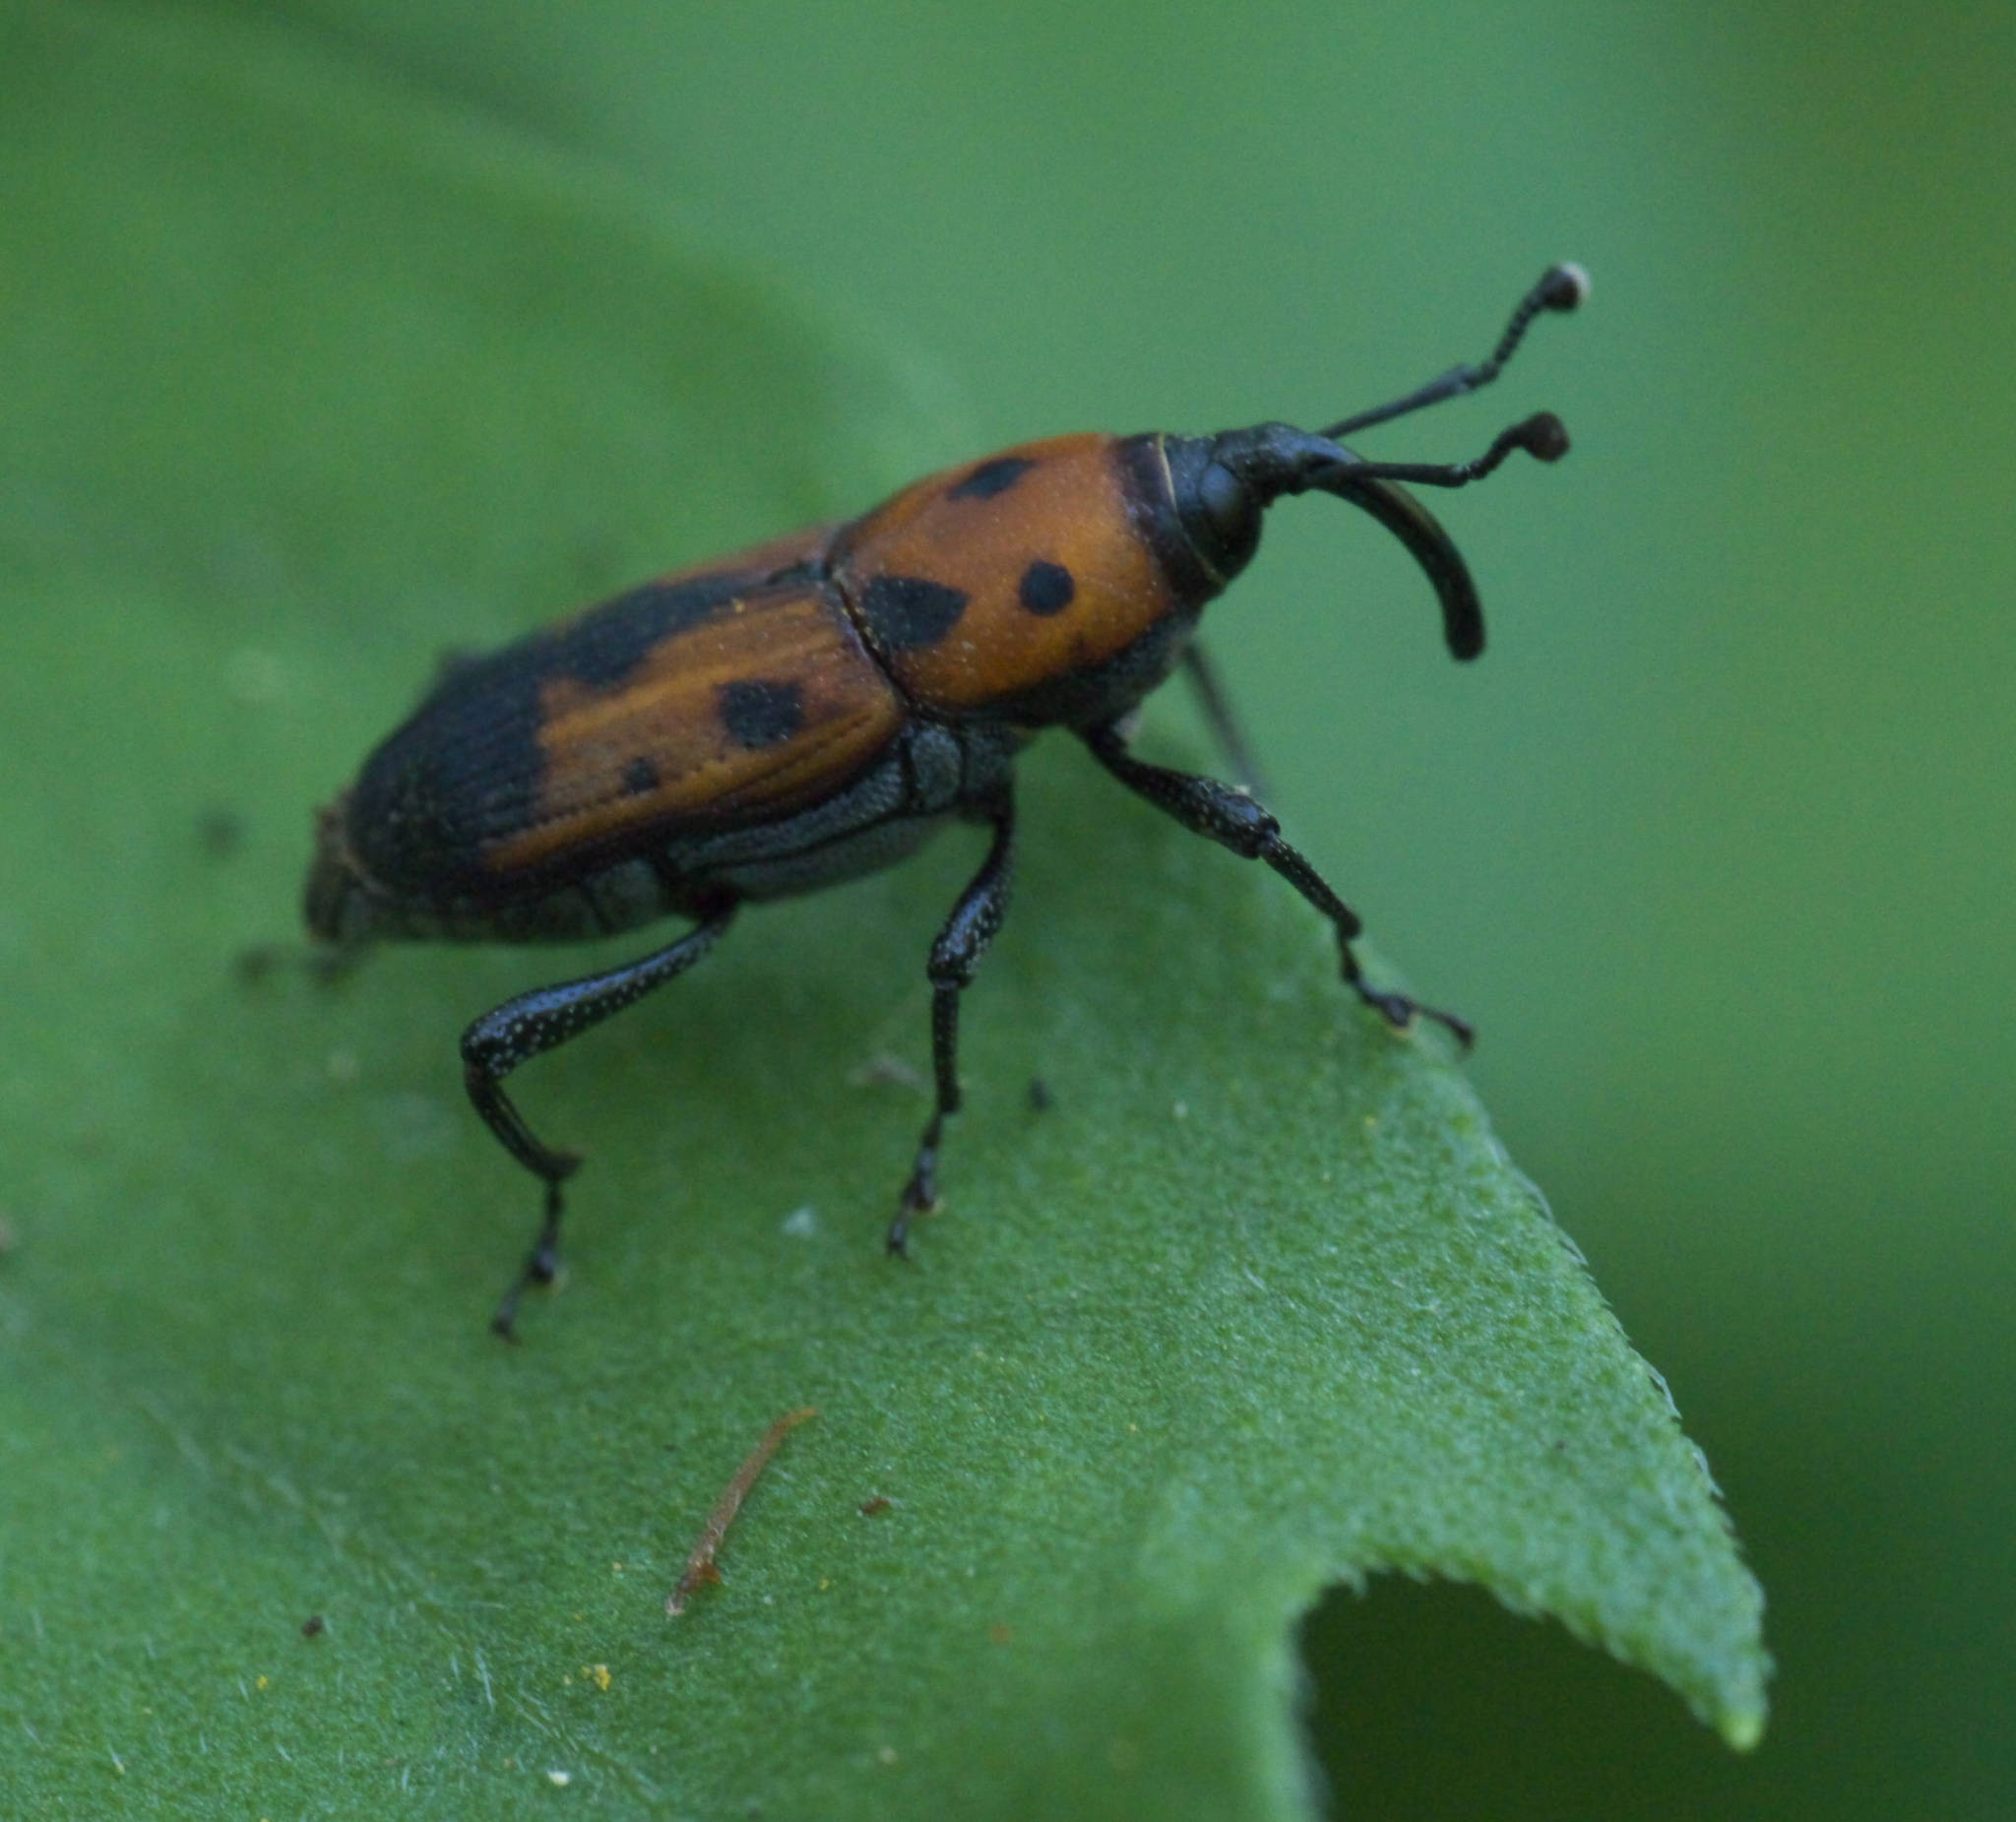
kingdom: Animalia
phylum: Arthropoda
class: Insecta
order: Coleoptera
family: Dryophthoridae
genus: Rhodobaenus
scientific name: Rhodobaenus quinquepunctatus
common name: Cocklebur weevil
